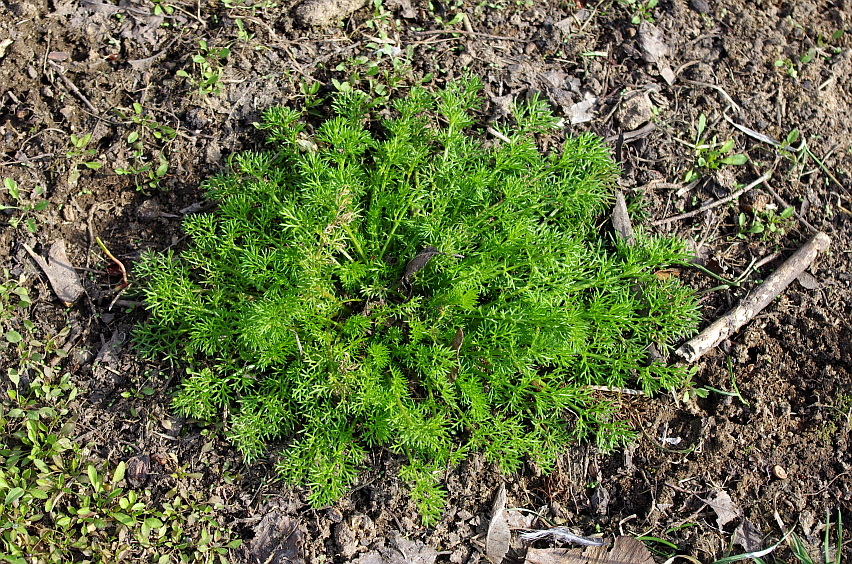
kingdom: Plantae
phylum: Tracheophyta
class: Magnoliopsida
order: Asterales
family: Asteraceae
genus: Tripleurospermum
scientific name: Tripleurospermum inodorum
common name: Scentless mayweed
